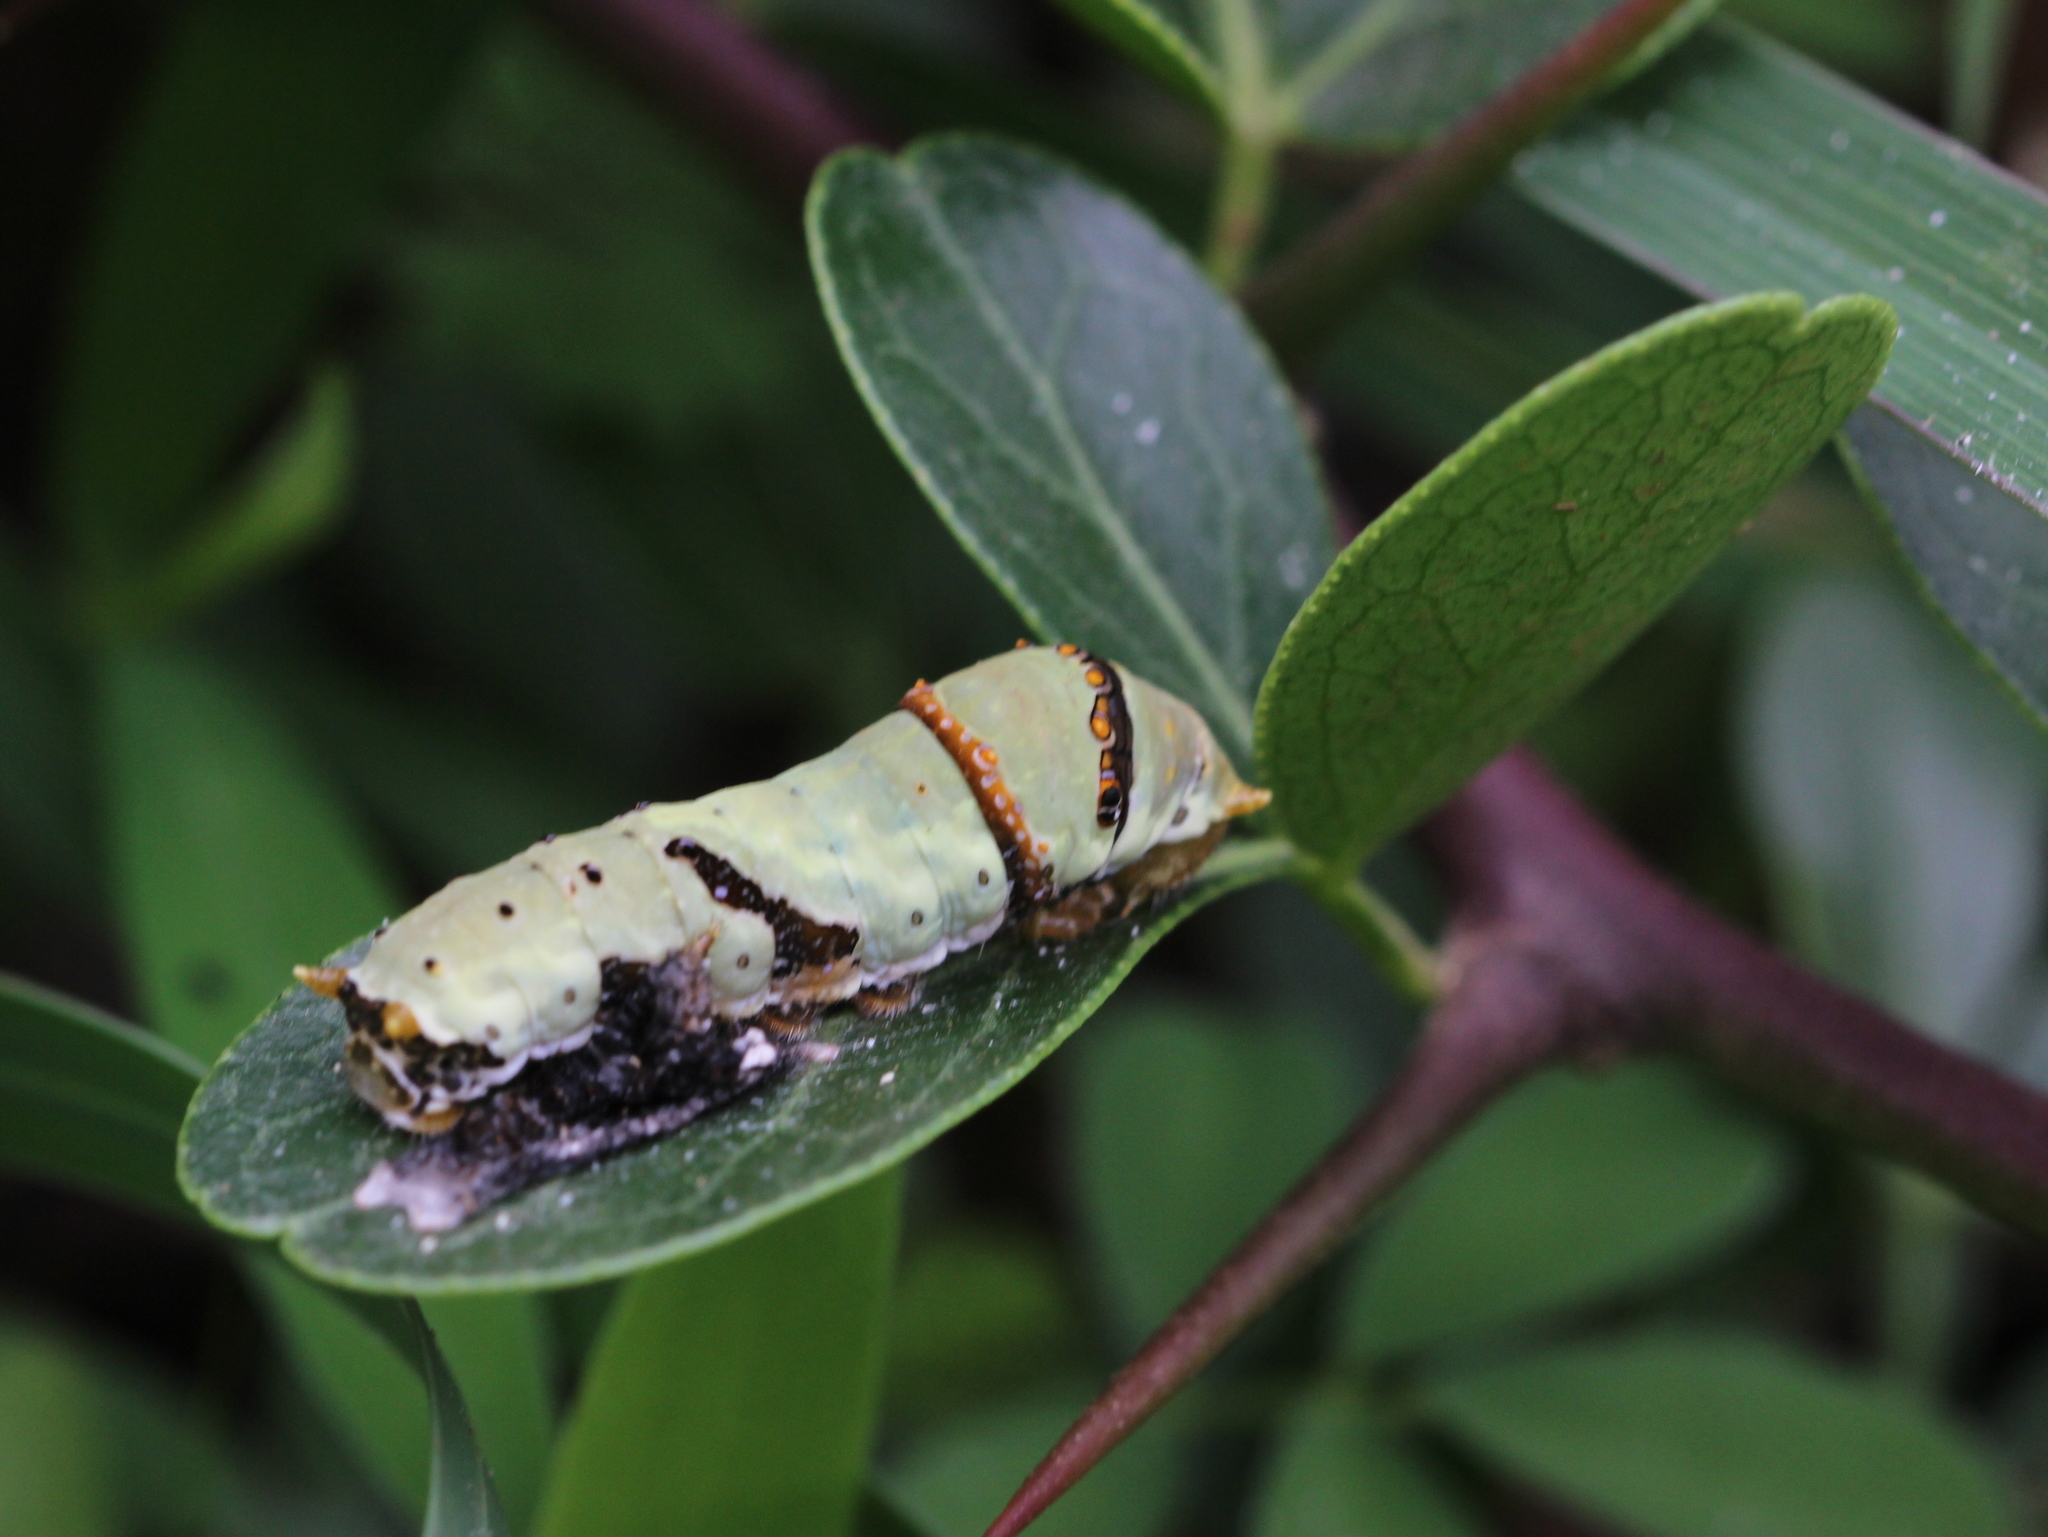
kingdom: Animalia
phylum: Arthropoda
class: Insecta
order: Lepidoptera
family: Papilionidae
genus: Papilio
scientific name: Papilio demoleus
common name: Lime butterfly
